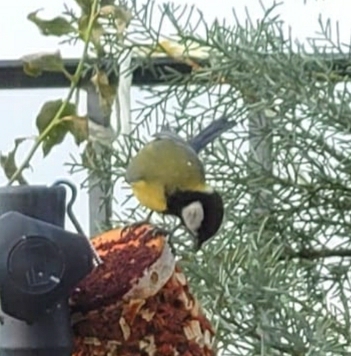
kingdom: Animalia
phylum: Chordata
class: Aves
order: Passeriformes
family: Paridae
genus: Parus
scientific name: Parus major
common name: Great tit
